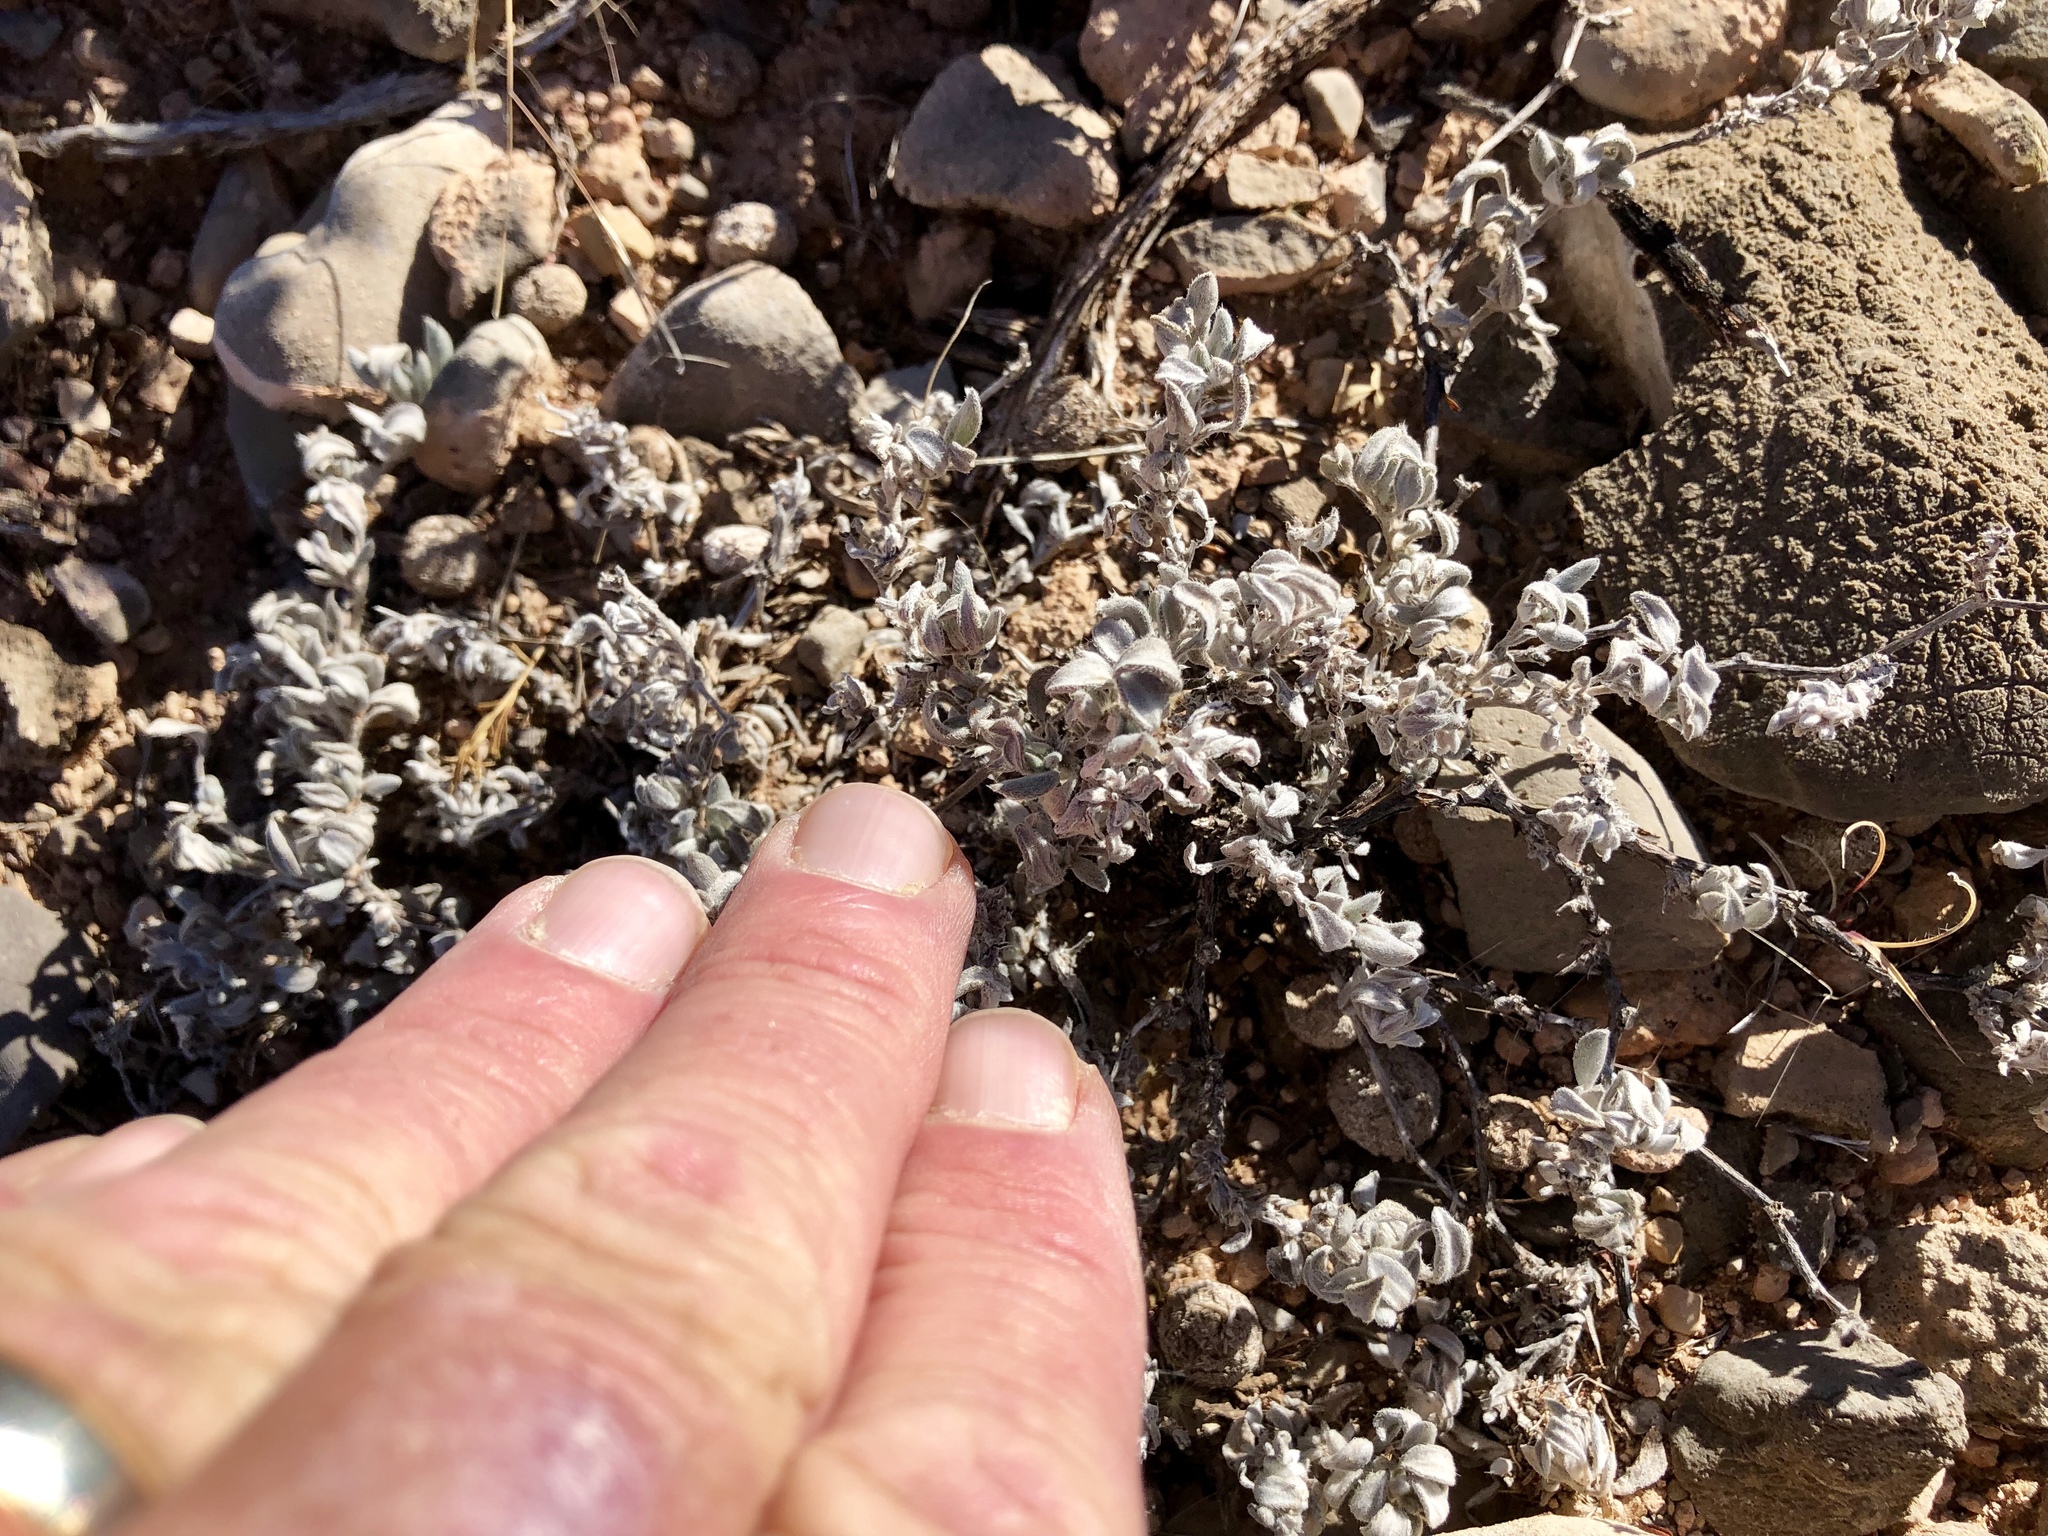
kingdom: Plantae
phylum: Tracheophyta
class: Magnoliopsida
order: Boraginales
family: Ehretiaceae
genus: Tiquilia
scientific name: Tiquilia canescens
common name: Hairy tiquilia
